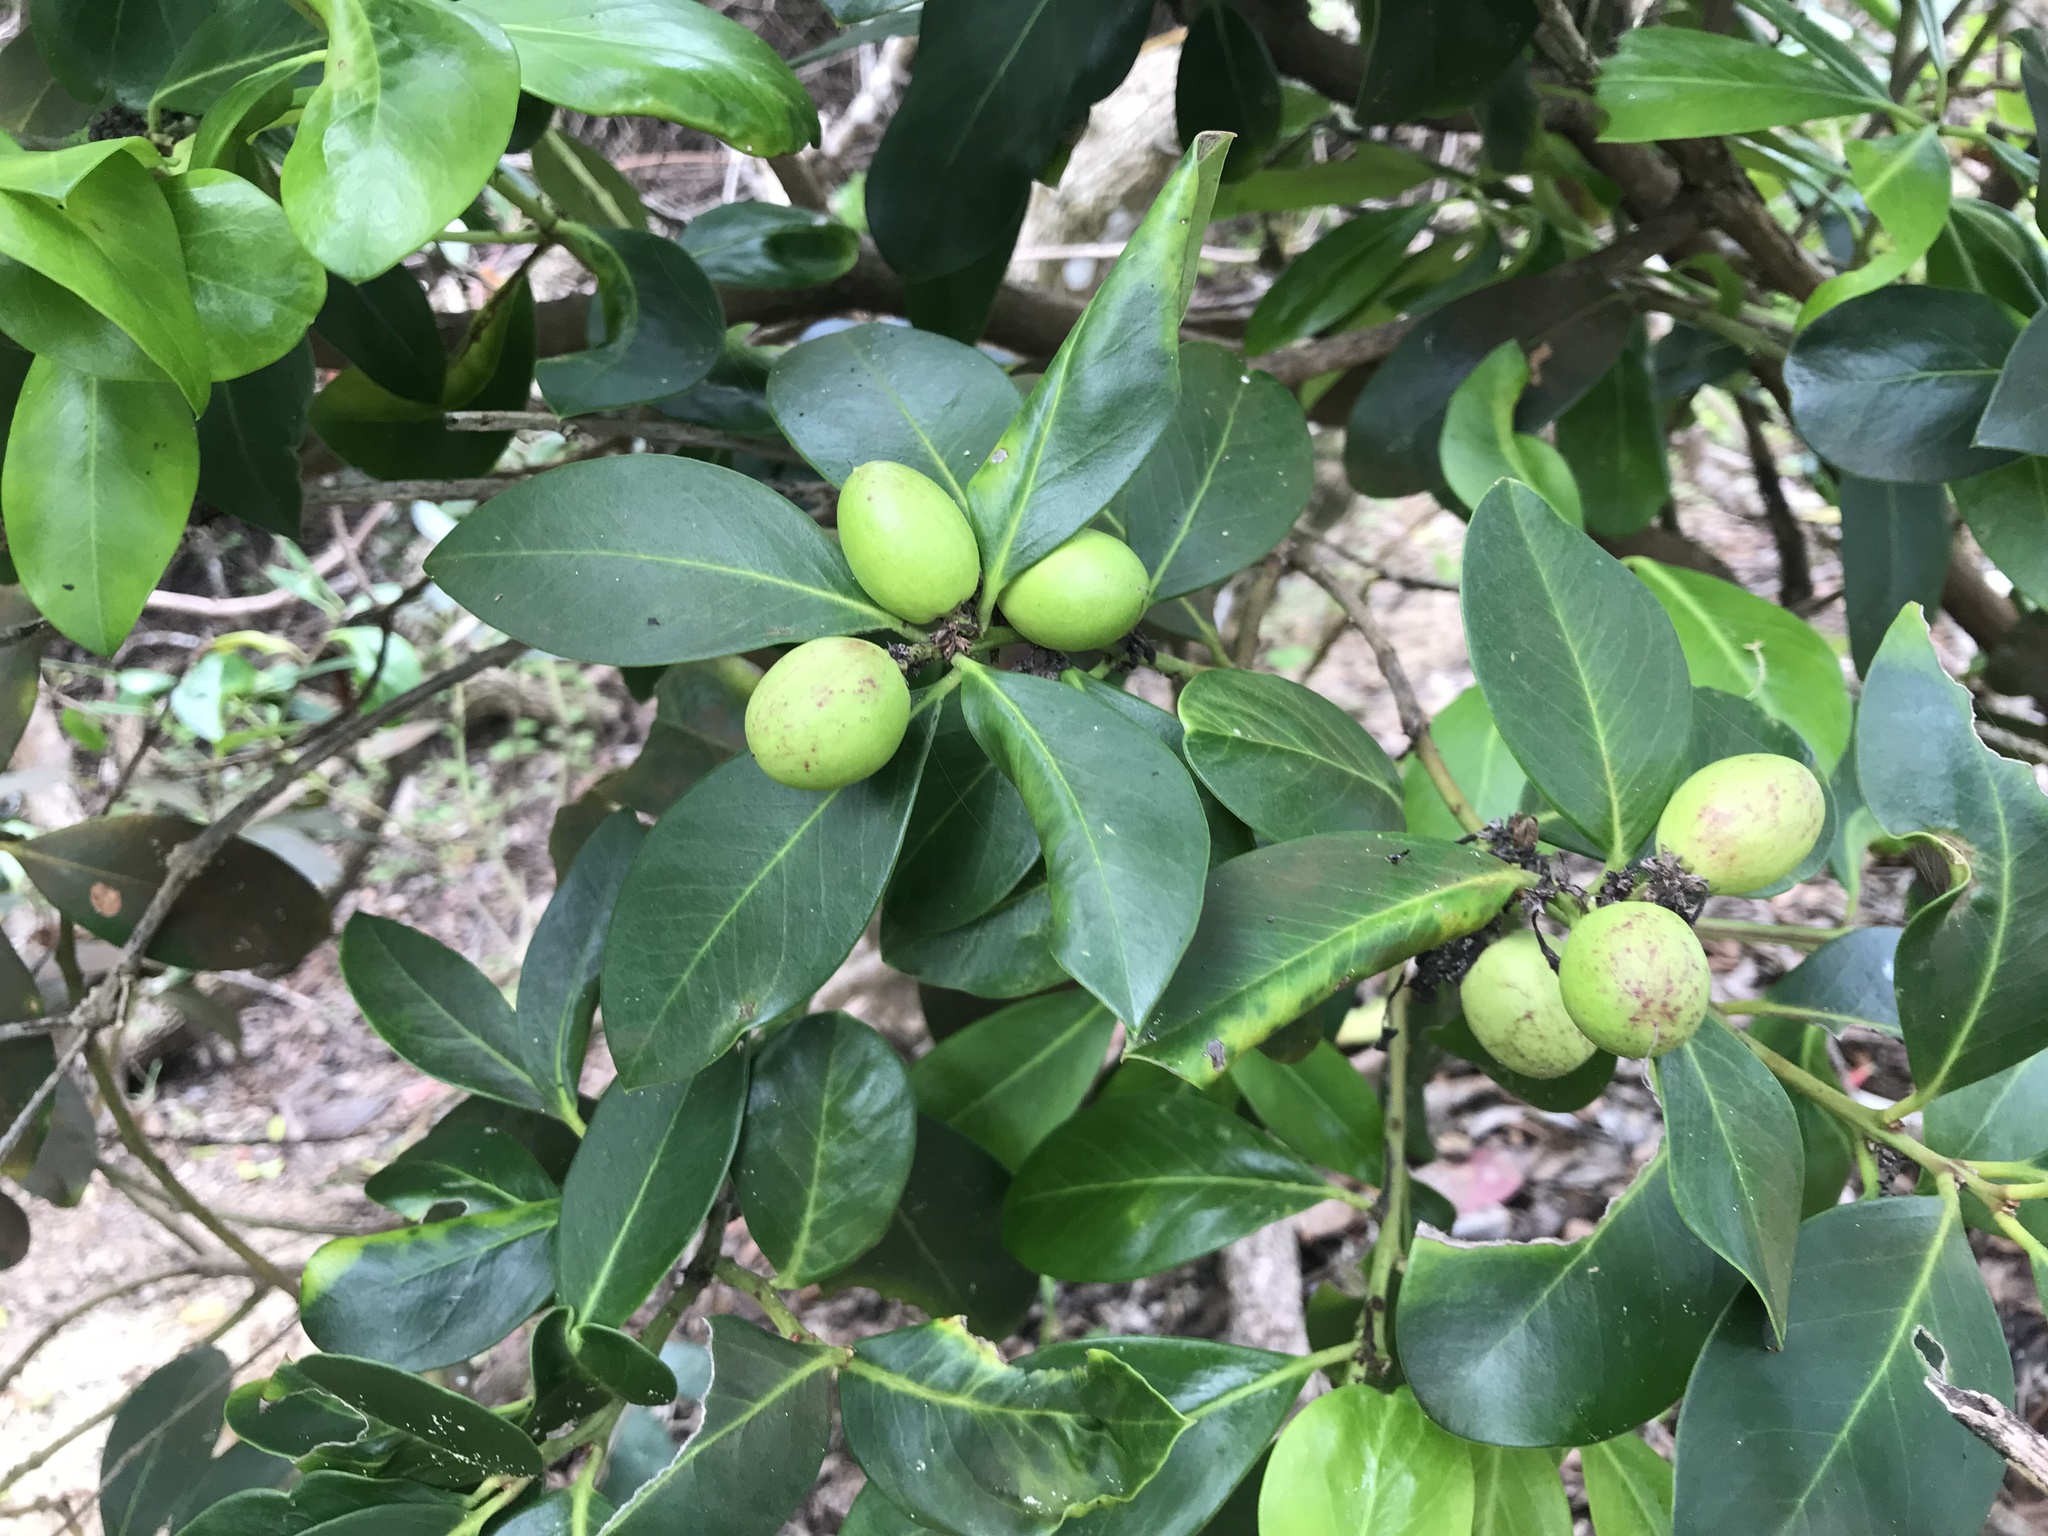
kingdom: Plantae
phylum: Tracheophyta
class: Magnoliopsida
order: Gentianales
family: Apocynaceae
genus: Acokanthera
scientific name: Acokanthera oppositifolia
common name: Bushman's-poison
